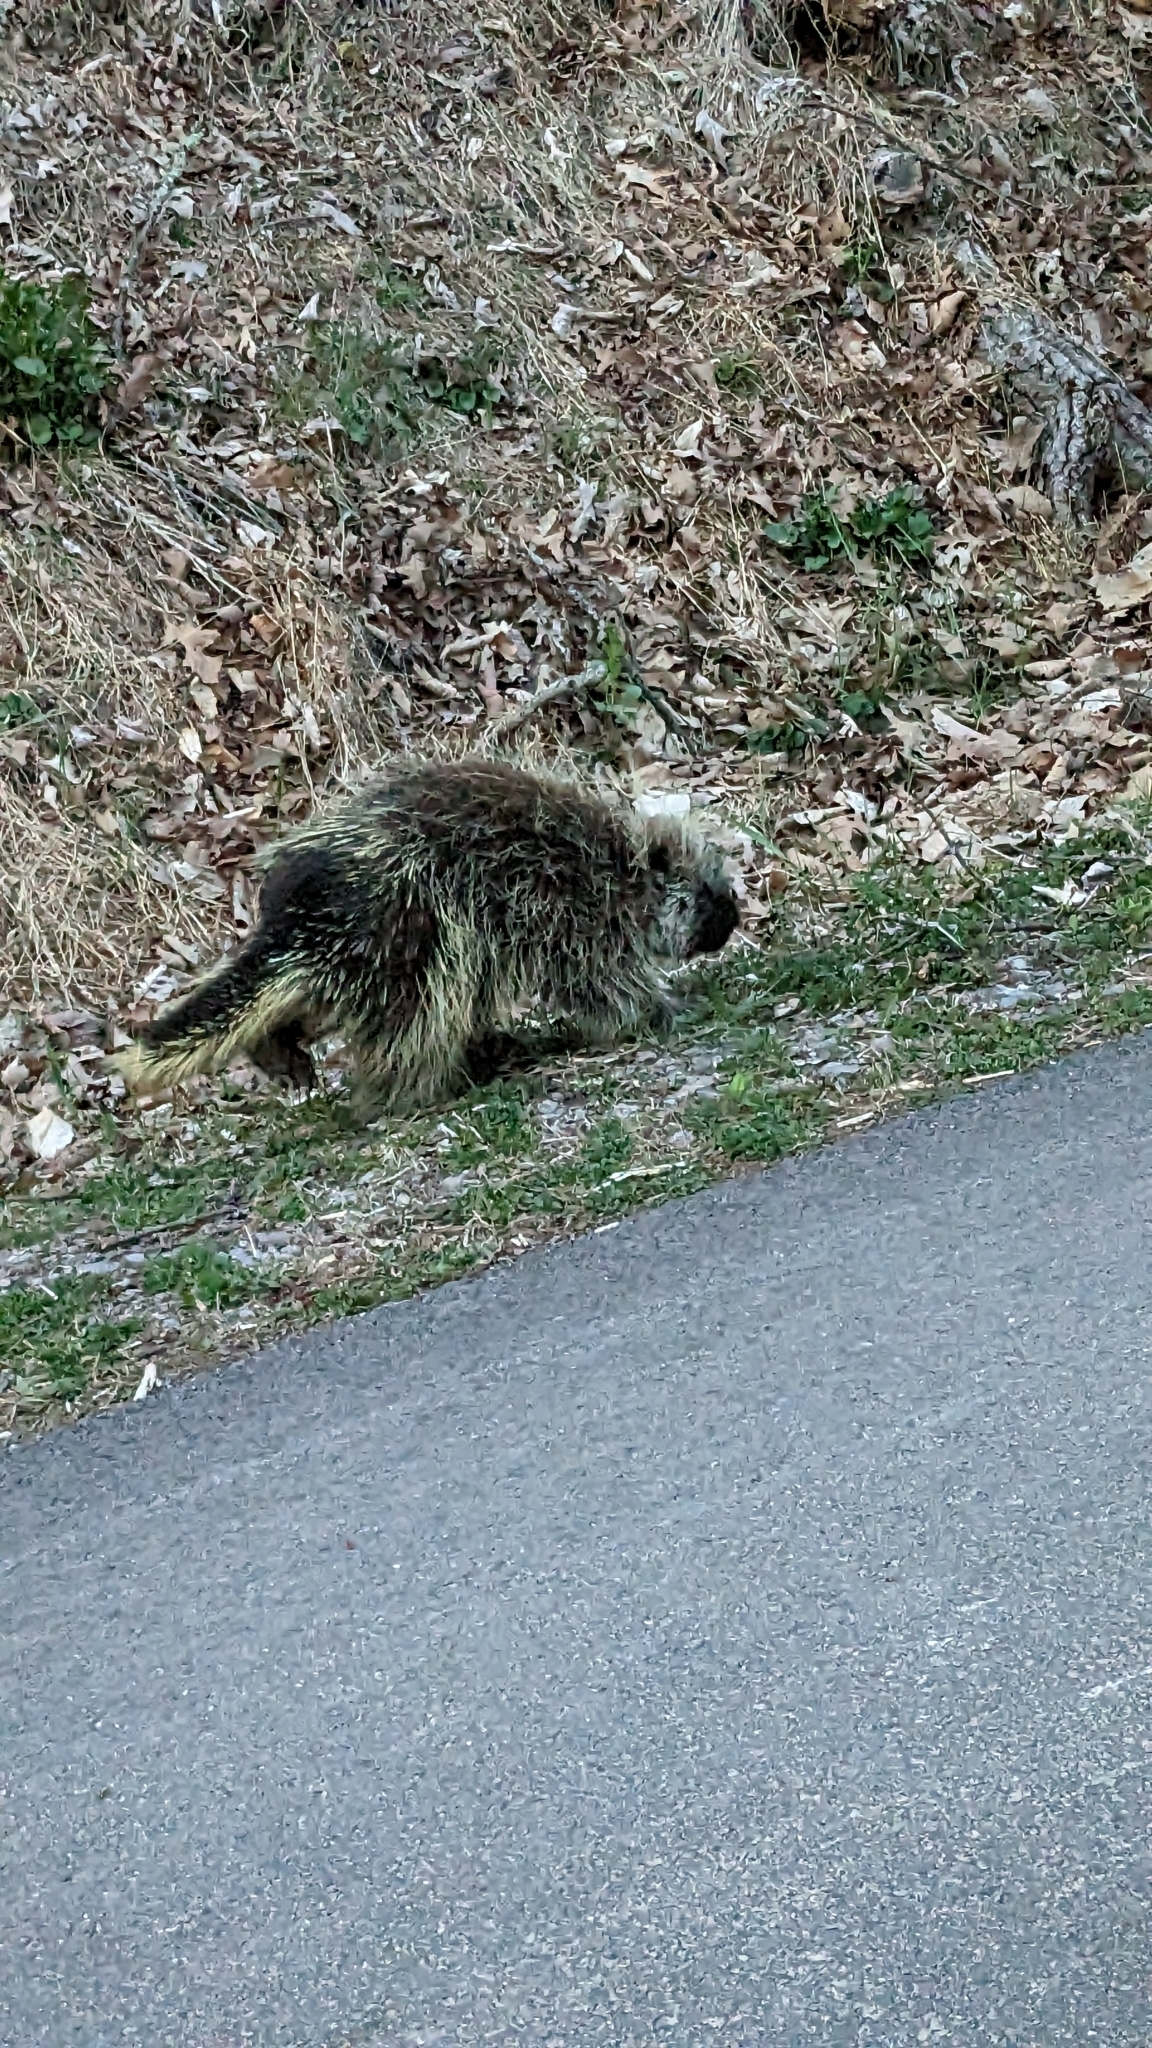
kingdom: Animalia
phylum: Chordata
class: Mammalia
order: Rodentia
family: Erethizontidae
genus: Erethizon
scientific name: Erethizon dorsatus
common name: North american porcupine
